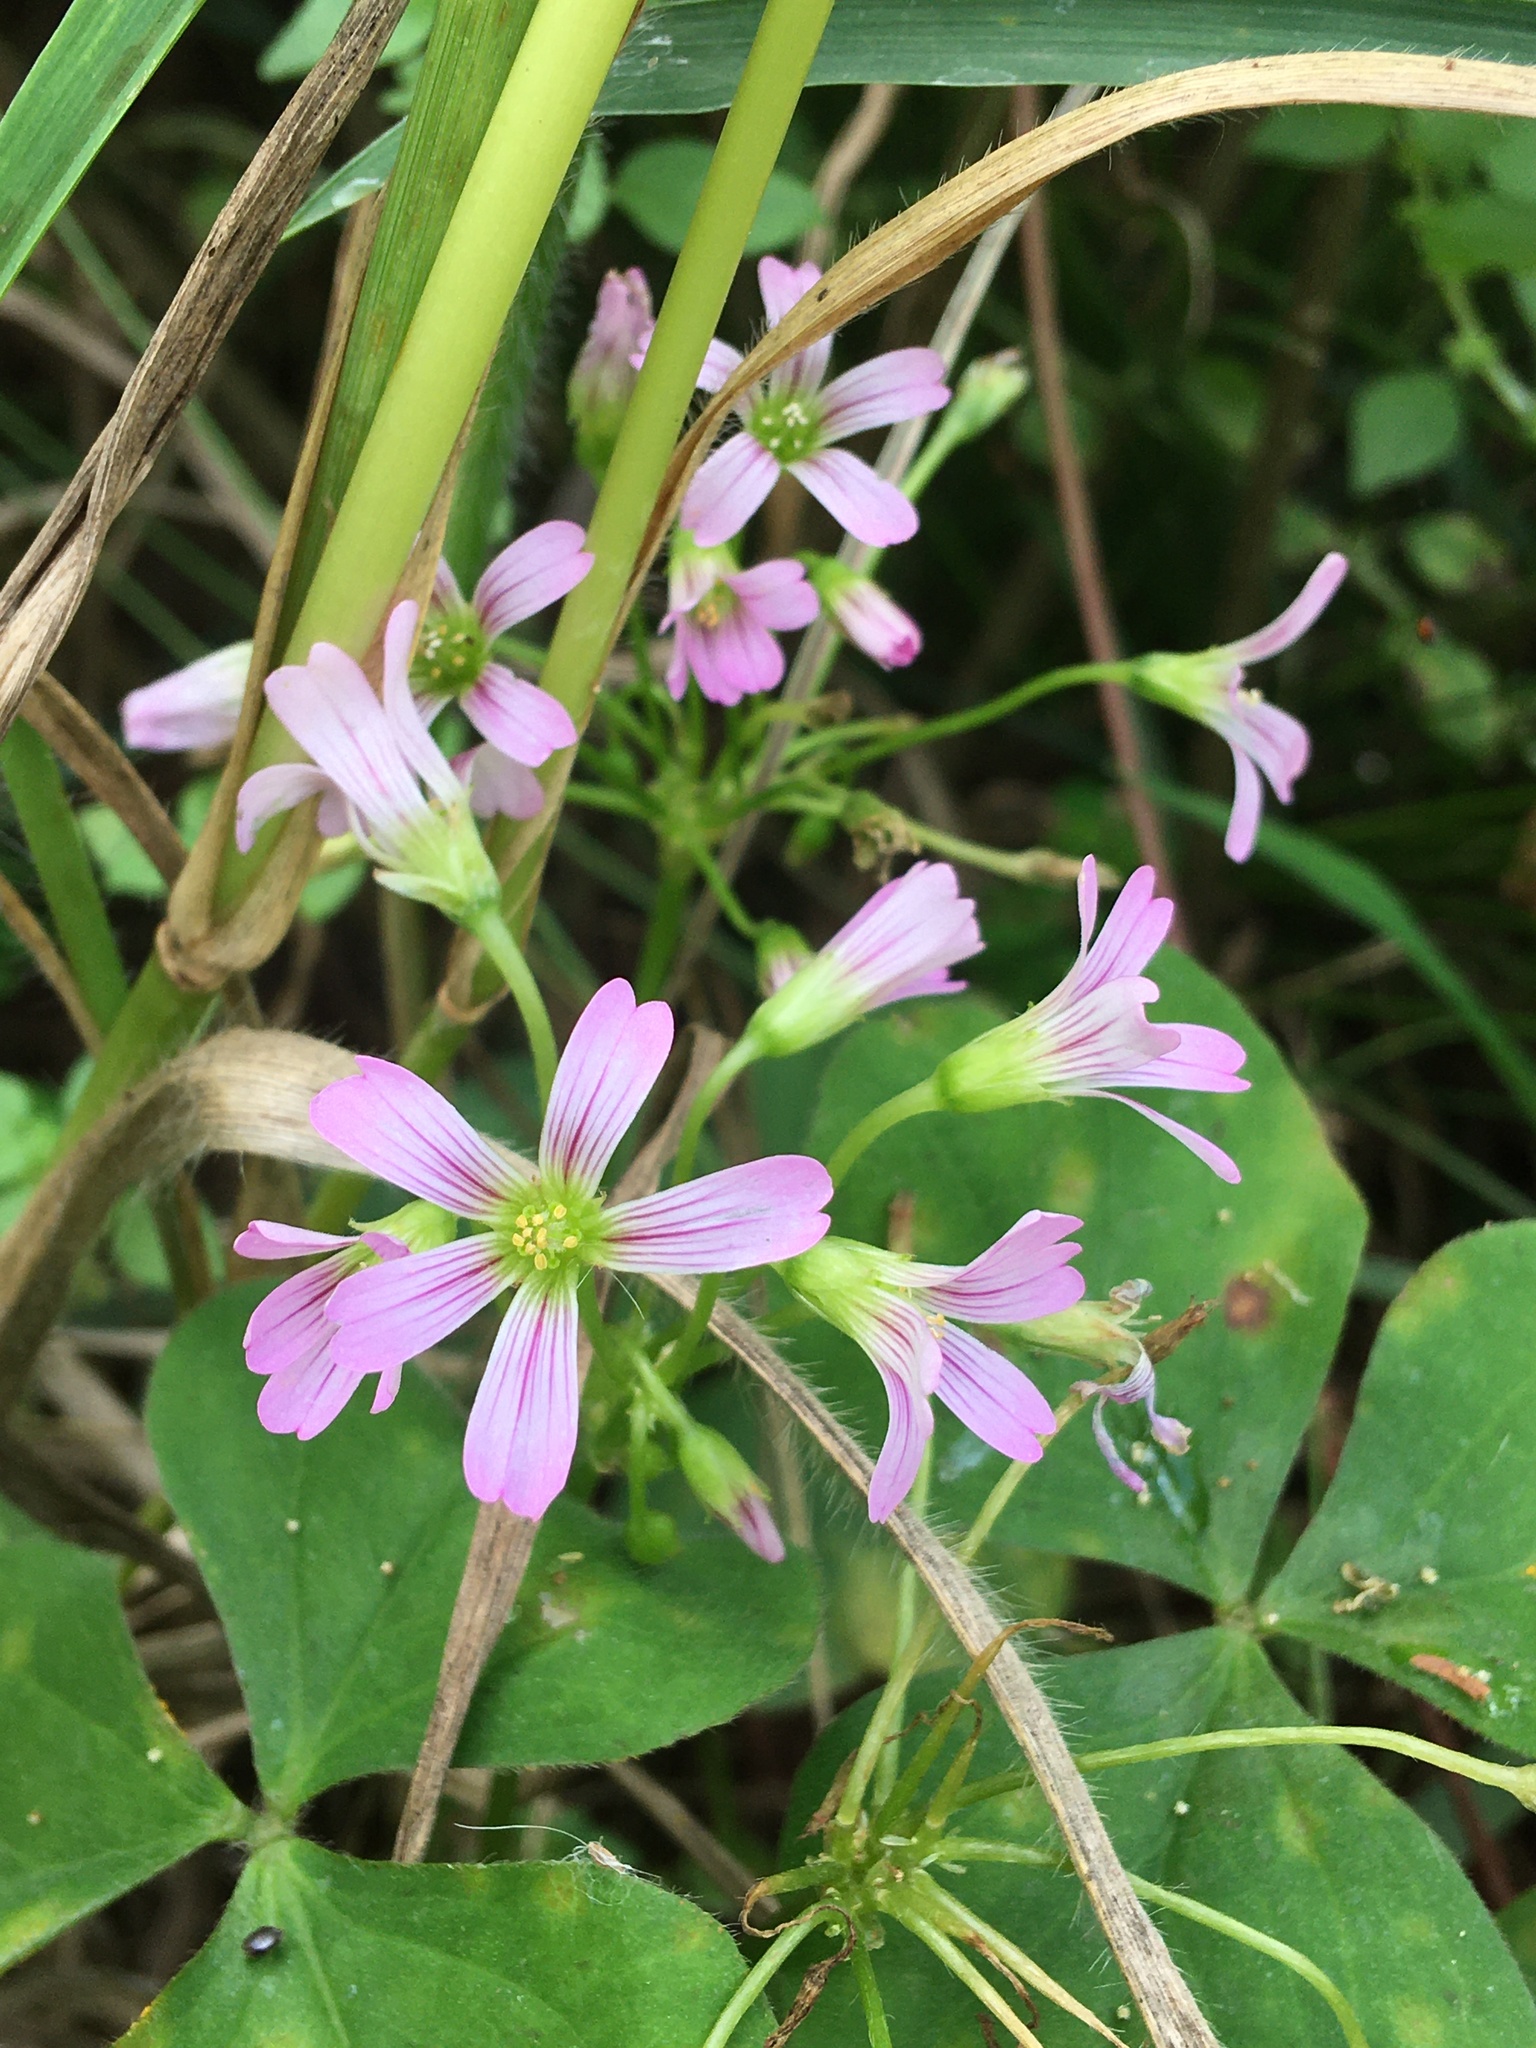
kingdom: Plantae
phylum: Tracheophyta
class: Magnoliopsida
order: Oxalidales
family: Oxalidaceae
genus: Oxalis
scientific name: Oxalis debilis
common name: Large-flowered pink-sorrel
